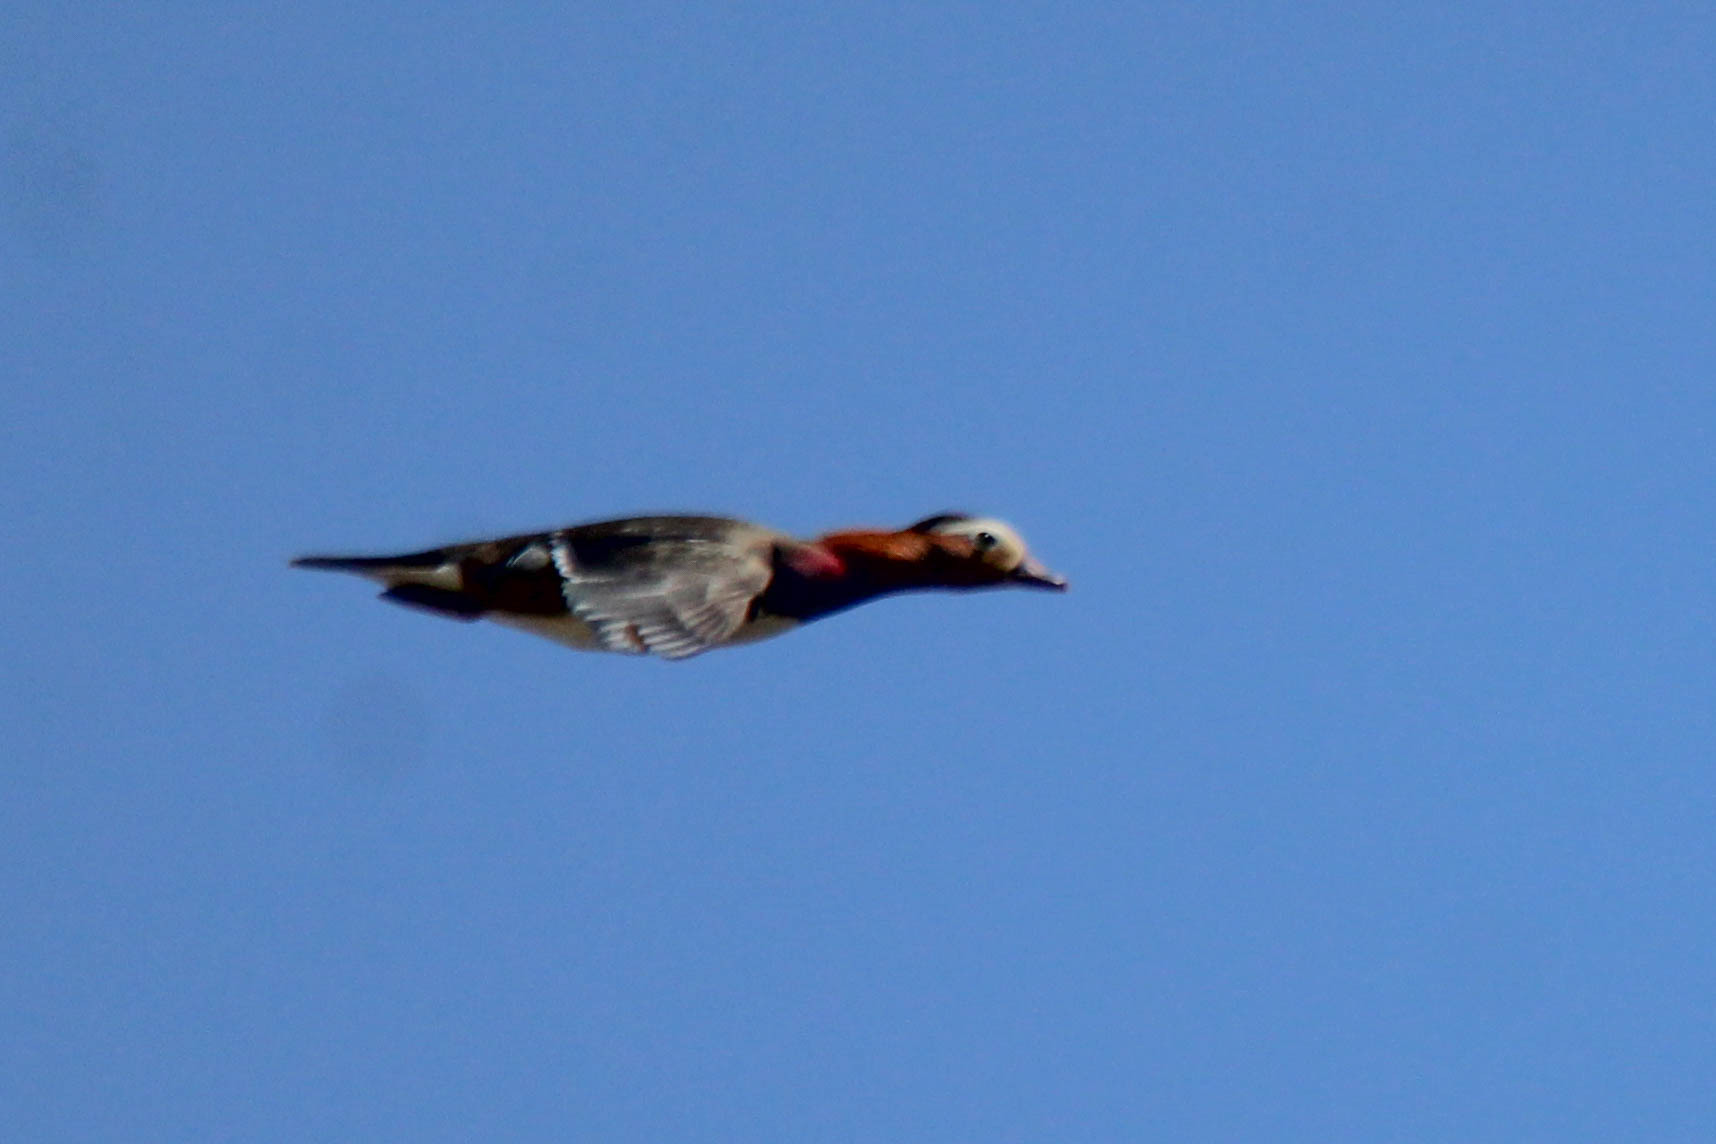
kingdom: Animalia
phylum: Chordata
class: Aves
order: Anseriformes
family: Anatidae
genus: Aix
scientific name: Aix galericulata
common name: Mandarin duck
